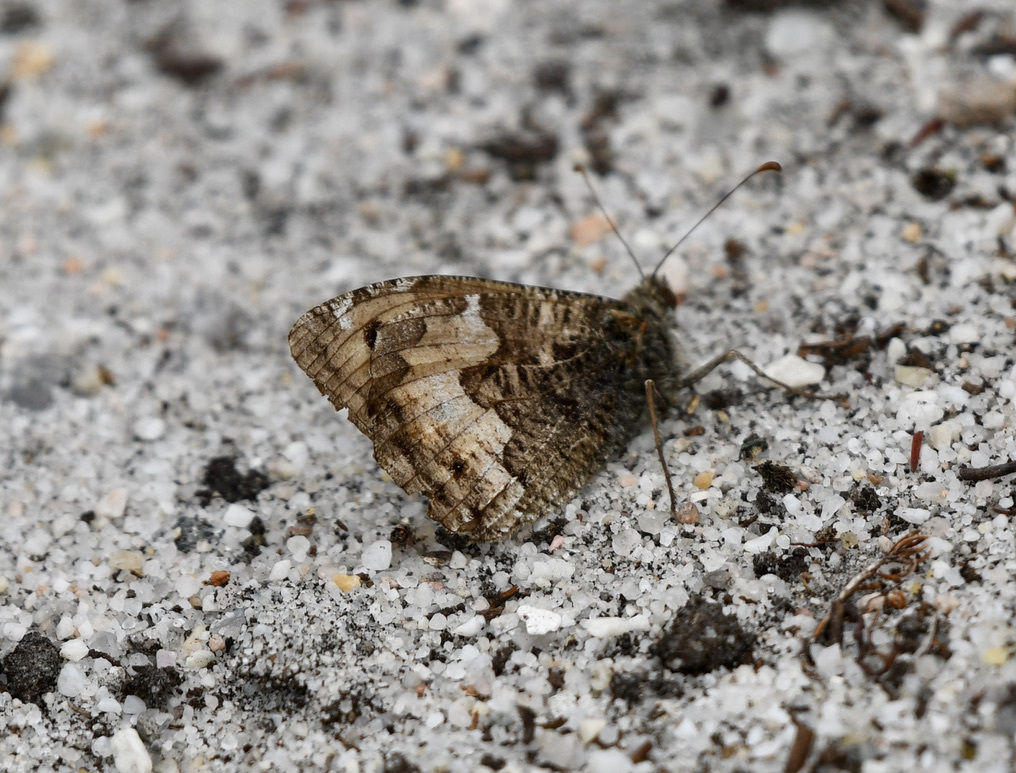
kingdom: Animalia
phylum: Arthropoda
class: Insecta
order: Lepidoptera
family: Nymphalidae
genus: Hipparchia
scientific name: Hipparchia semele
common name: Grayling
